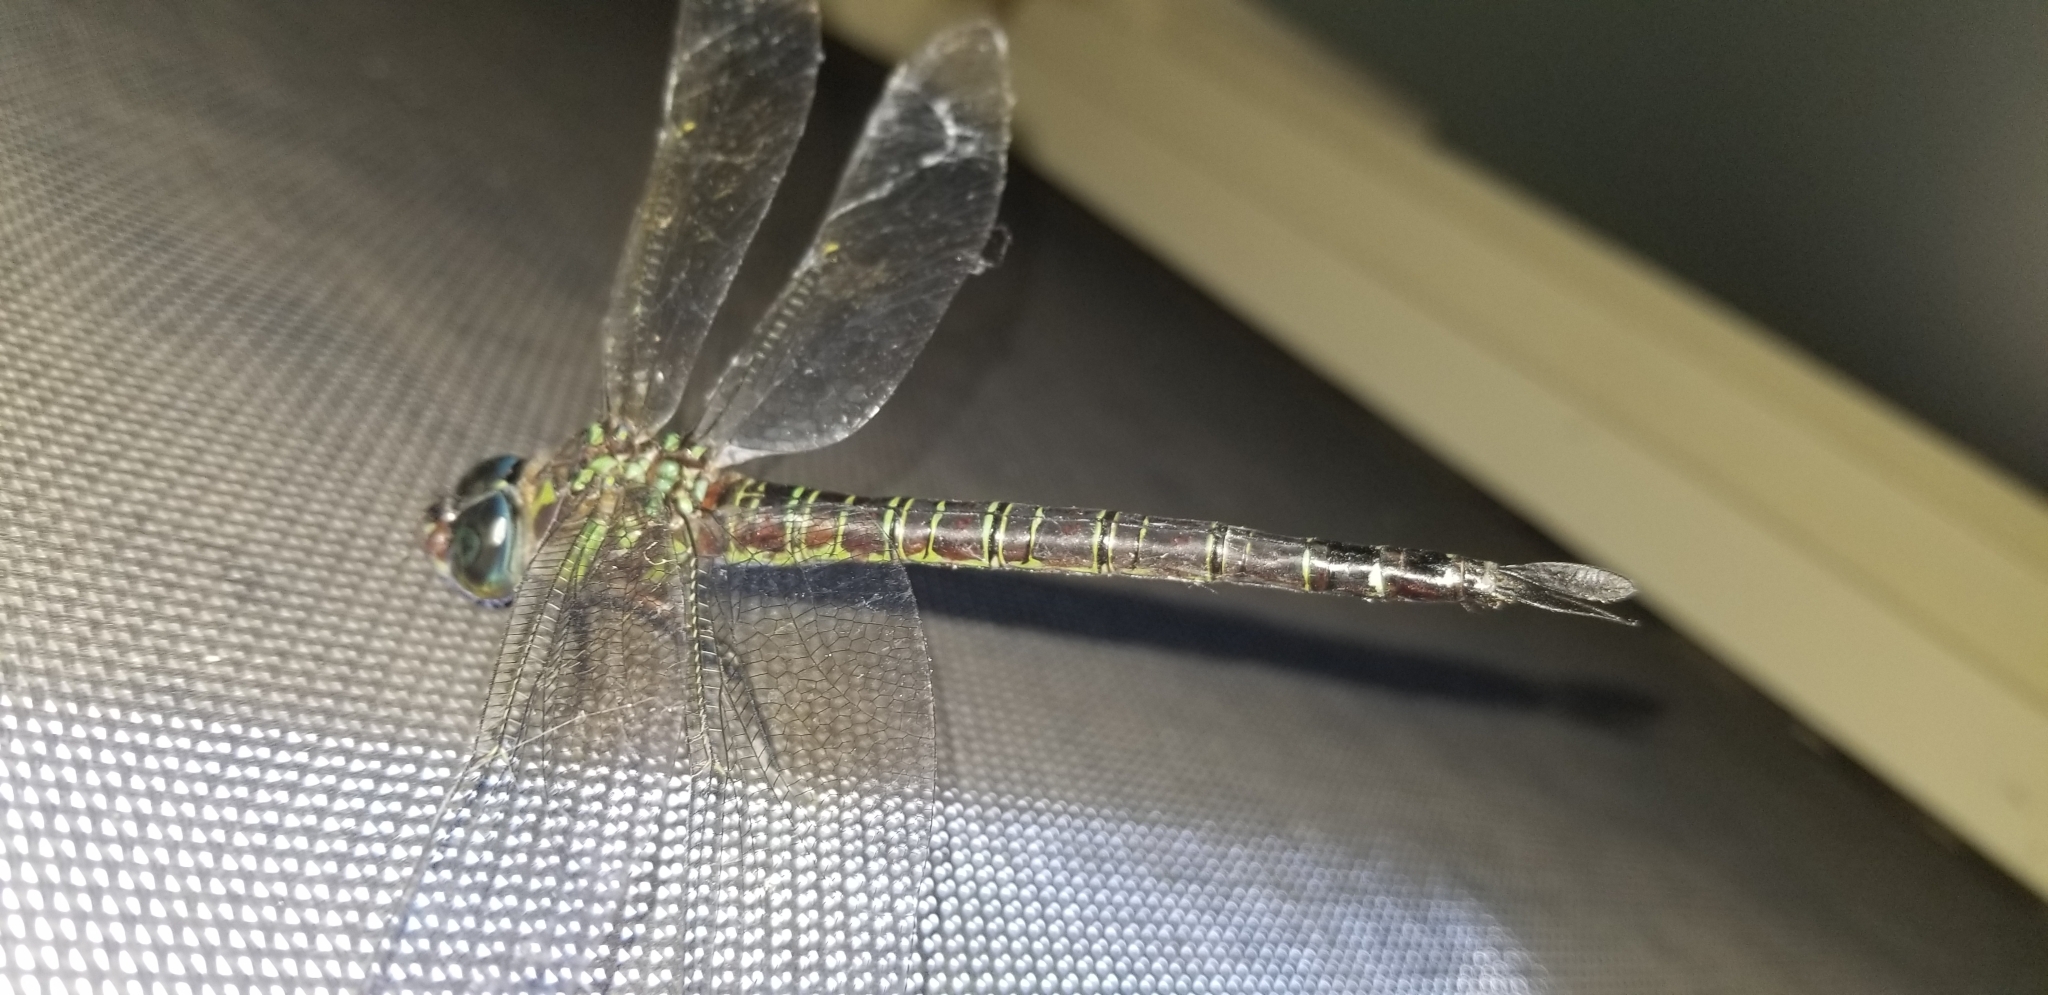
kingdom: Animalia
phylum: Arthropoda
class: Insecta
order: Odonata
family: Aeshnidae
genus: Epiaeschna
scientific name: Epiaeschna heros
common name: Swamp darner
